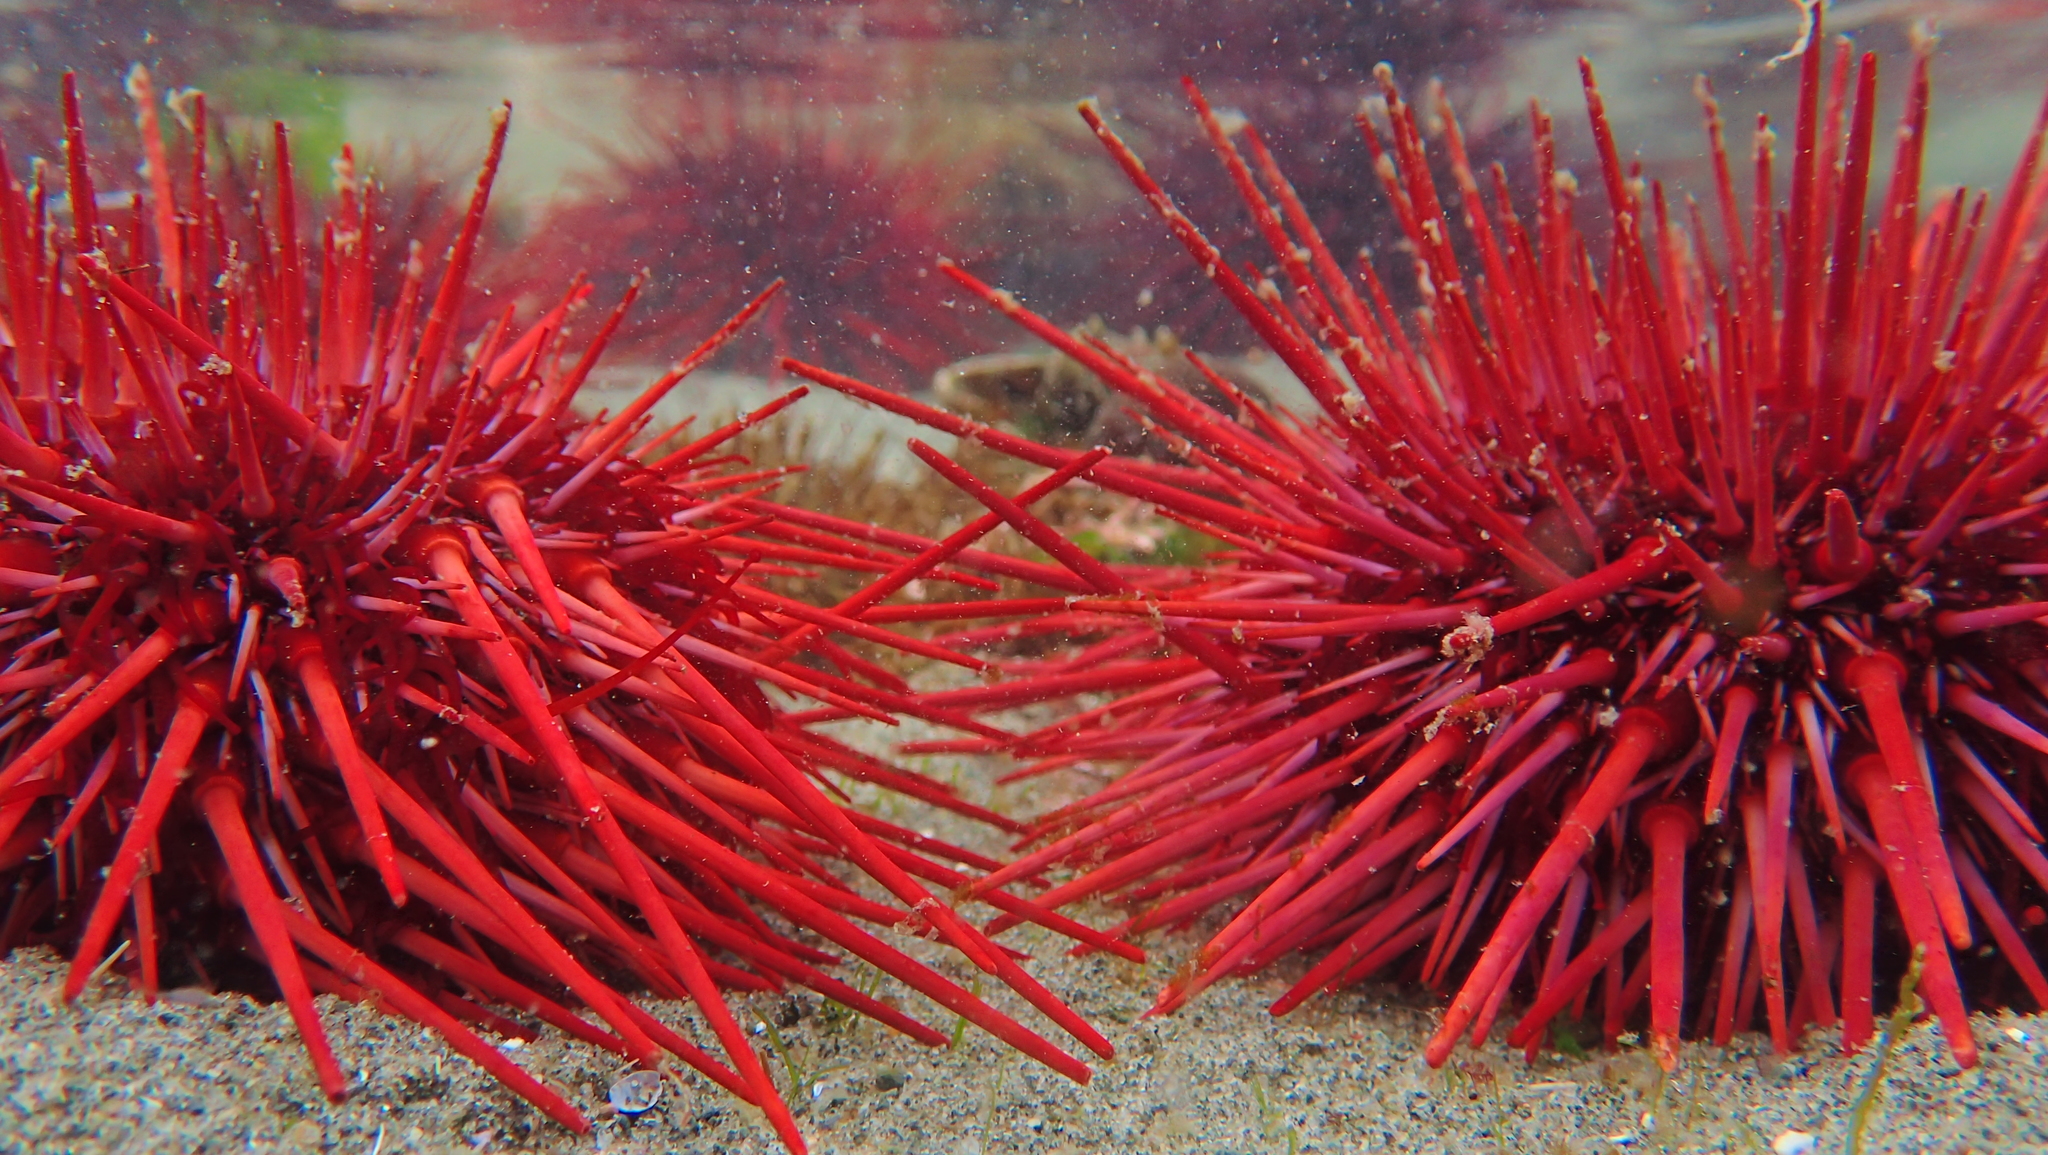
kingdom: Animalia
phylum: Echinodermata
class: Echinoidea
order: Camarodonta
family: Strongylocentrotidae
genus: Mesocentrotus
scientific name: Mesocentrotus franciscanus
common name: Red sea urchin
